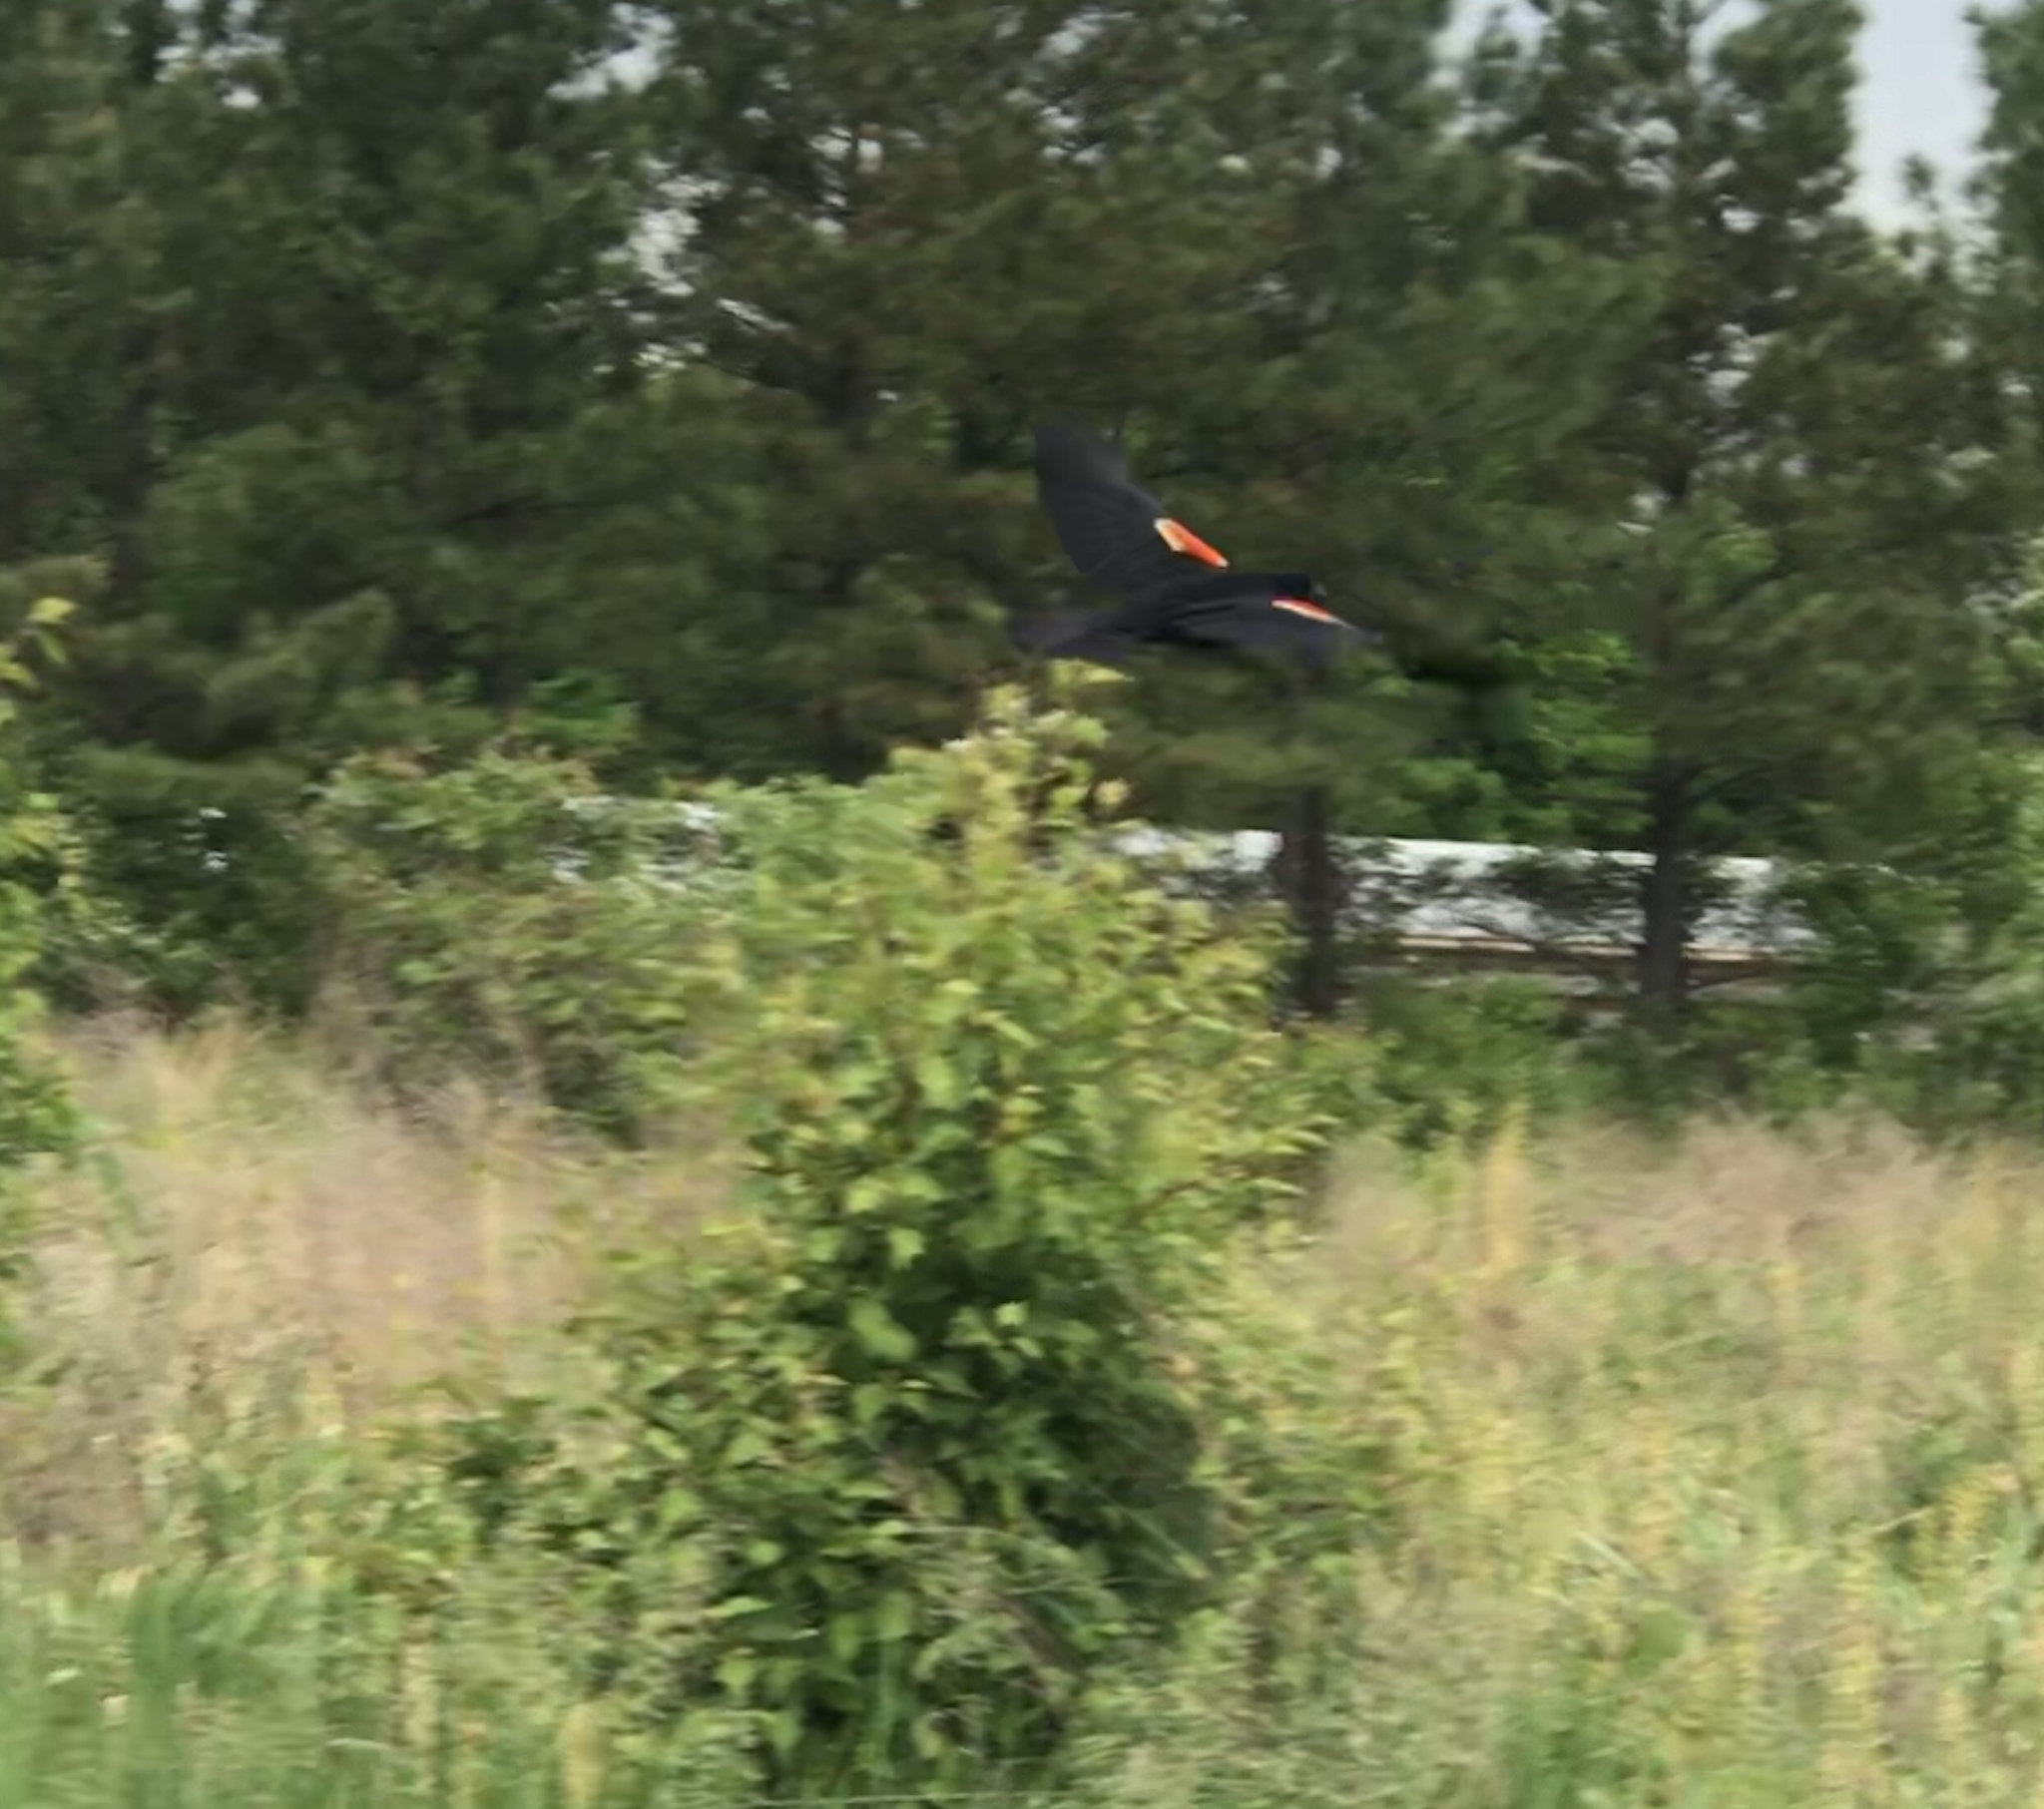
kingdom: Animalia
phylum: Chordata
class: Aves
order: Passeriformes
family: Icteridae
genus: Agelaius
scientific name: Agelaius phoeniceus
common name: Red-winged blackbird
